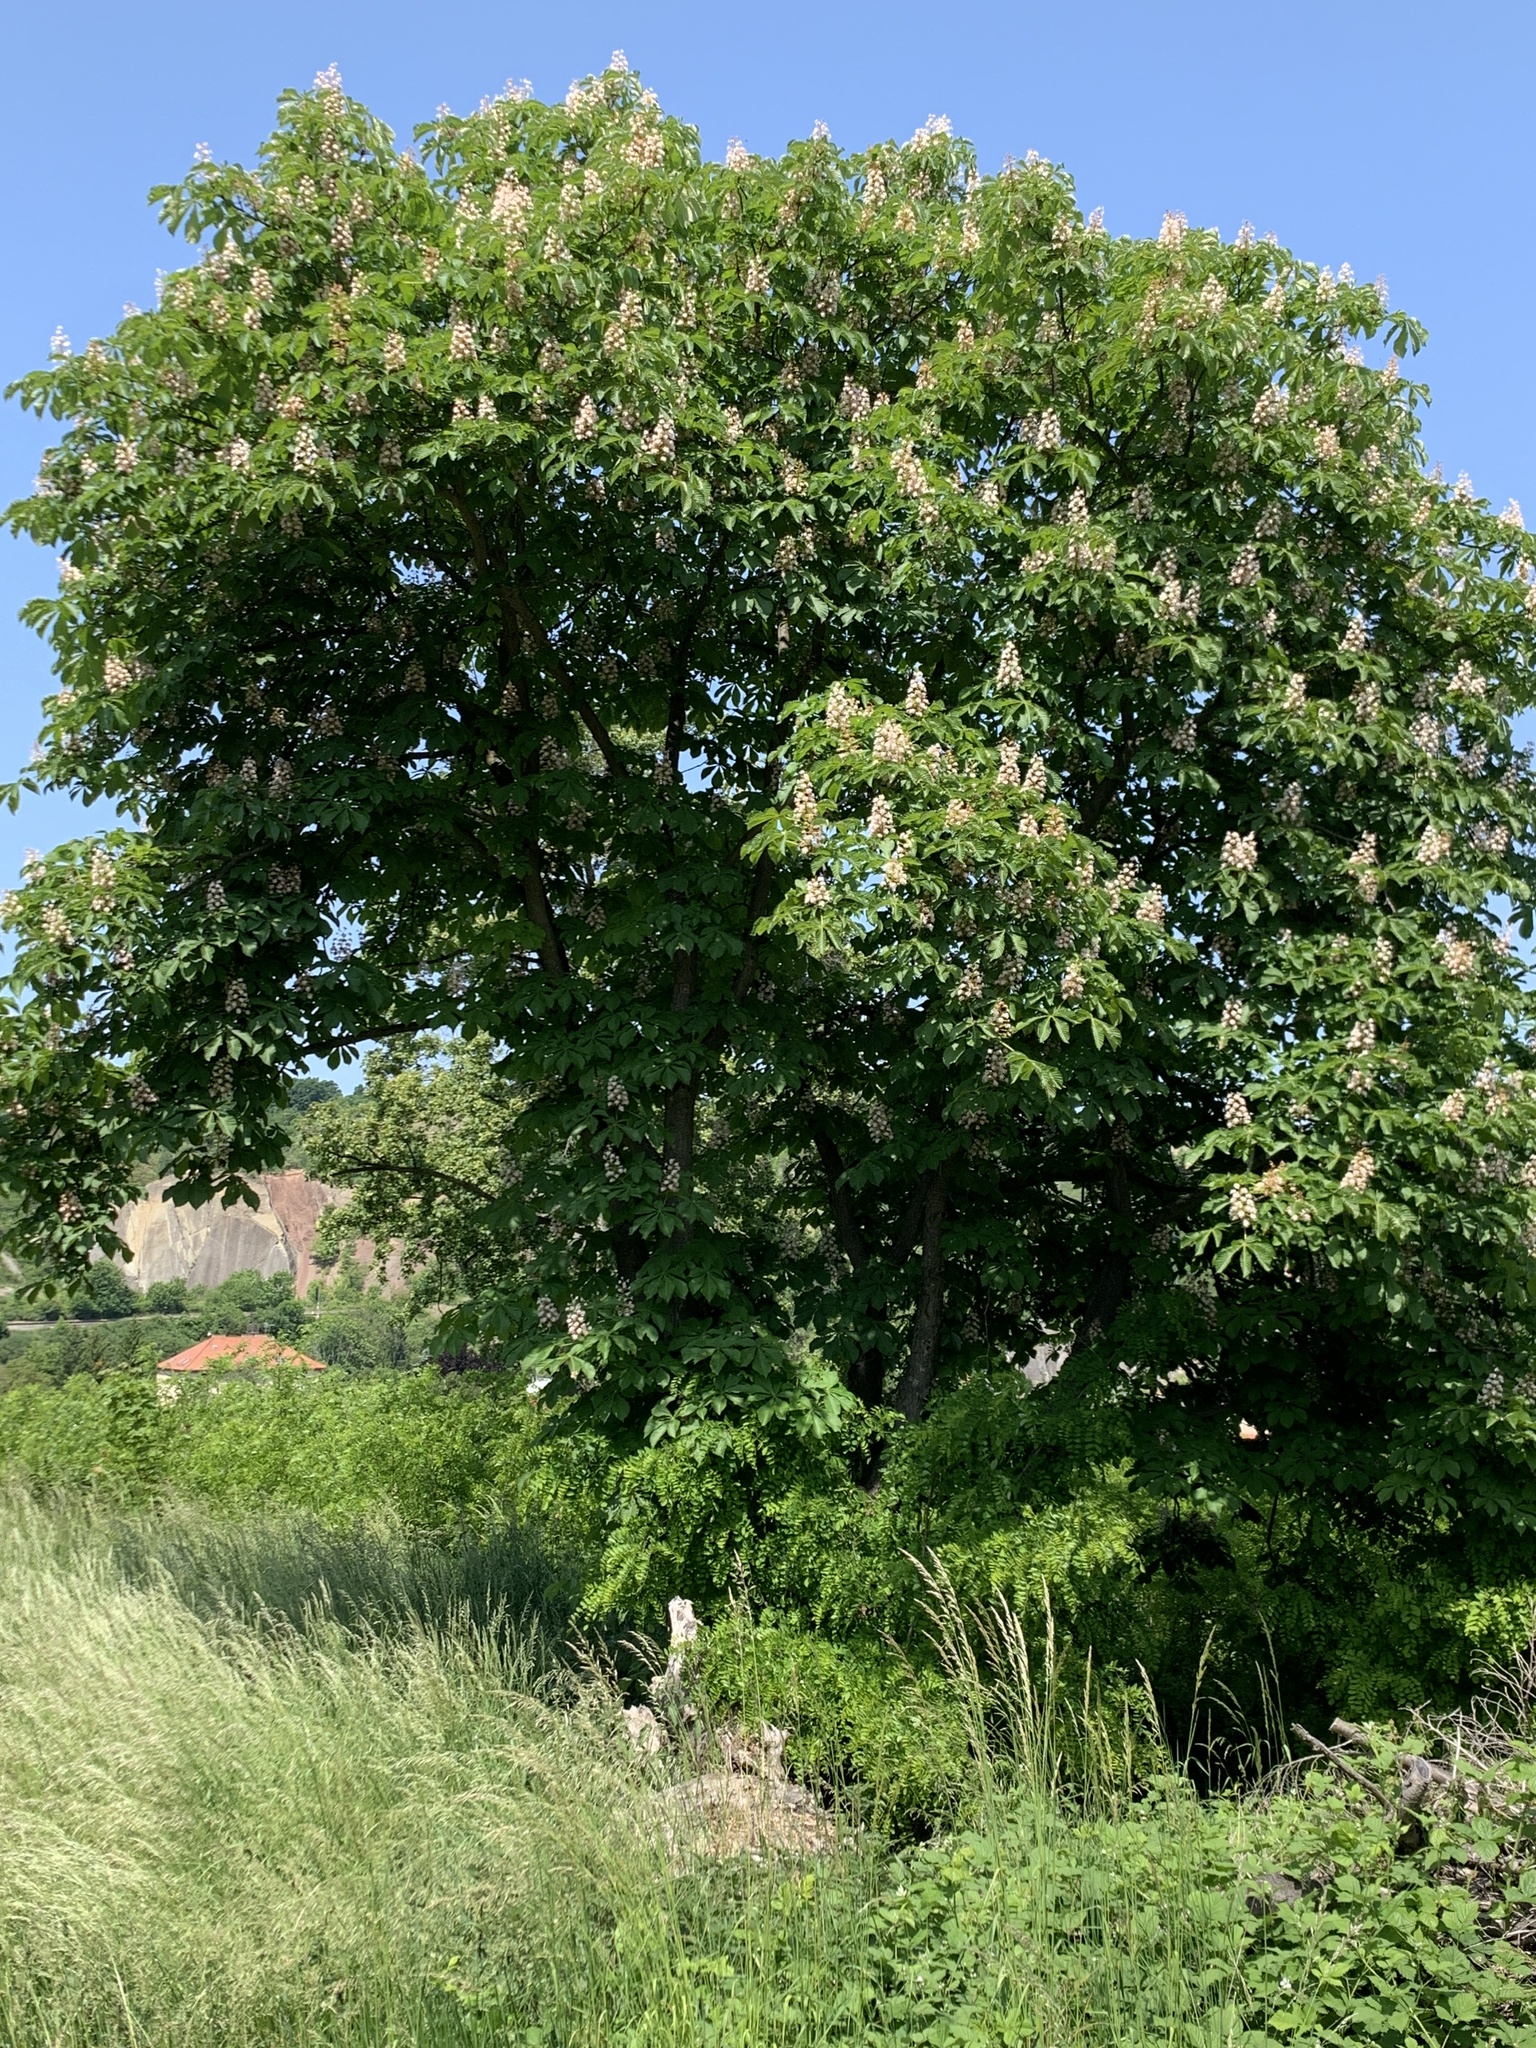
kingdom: Plantae
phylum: Tracheophyta
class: Magnoliopsida
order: Sapindales
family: Sapindaceae
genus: Aesculus
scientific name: Aesculus hippocastanum
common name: Horse-chestnut
